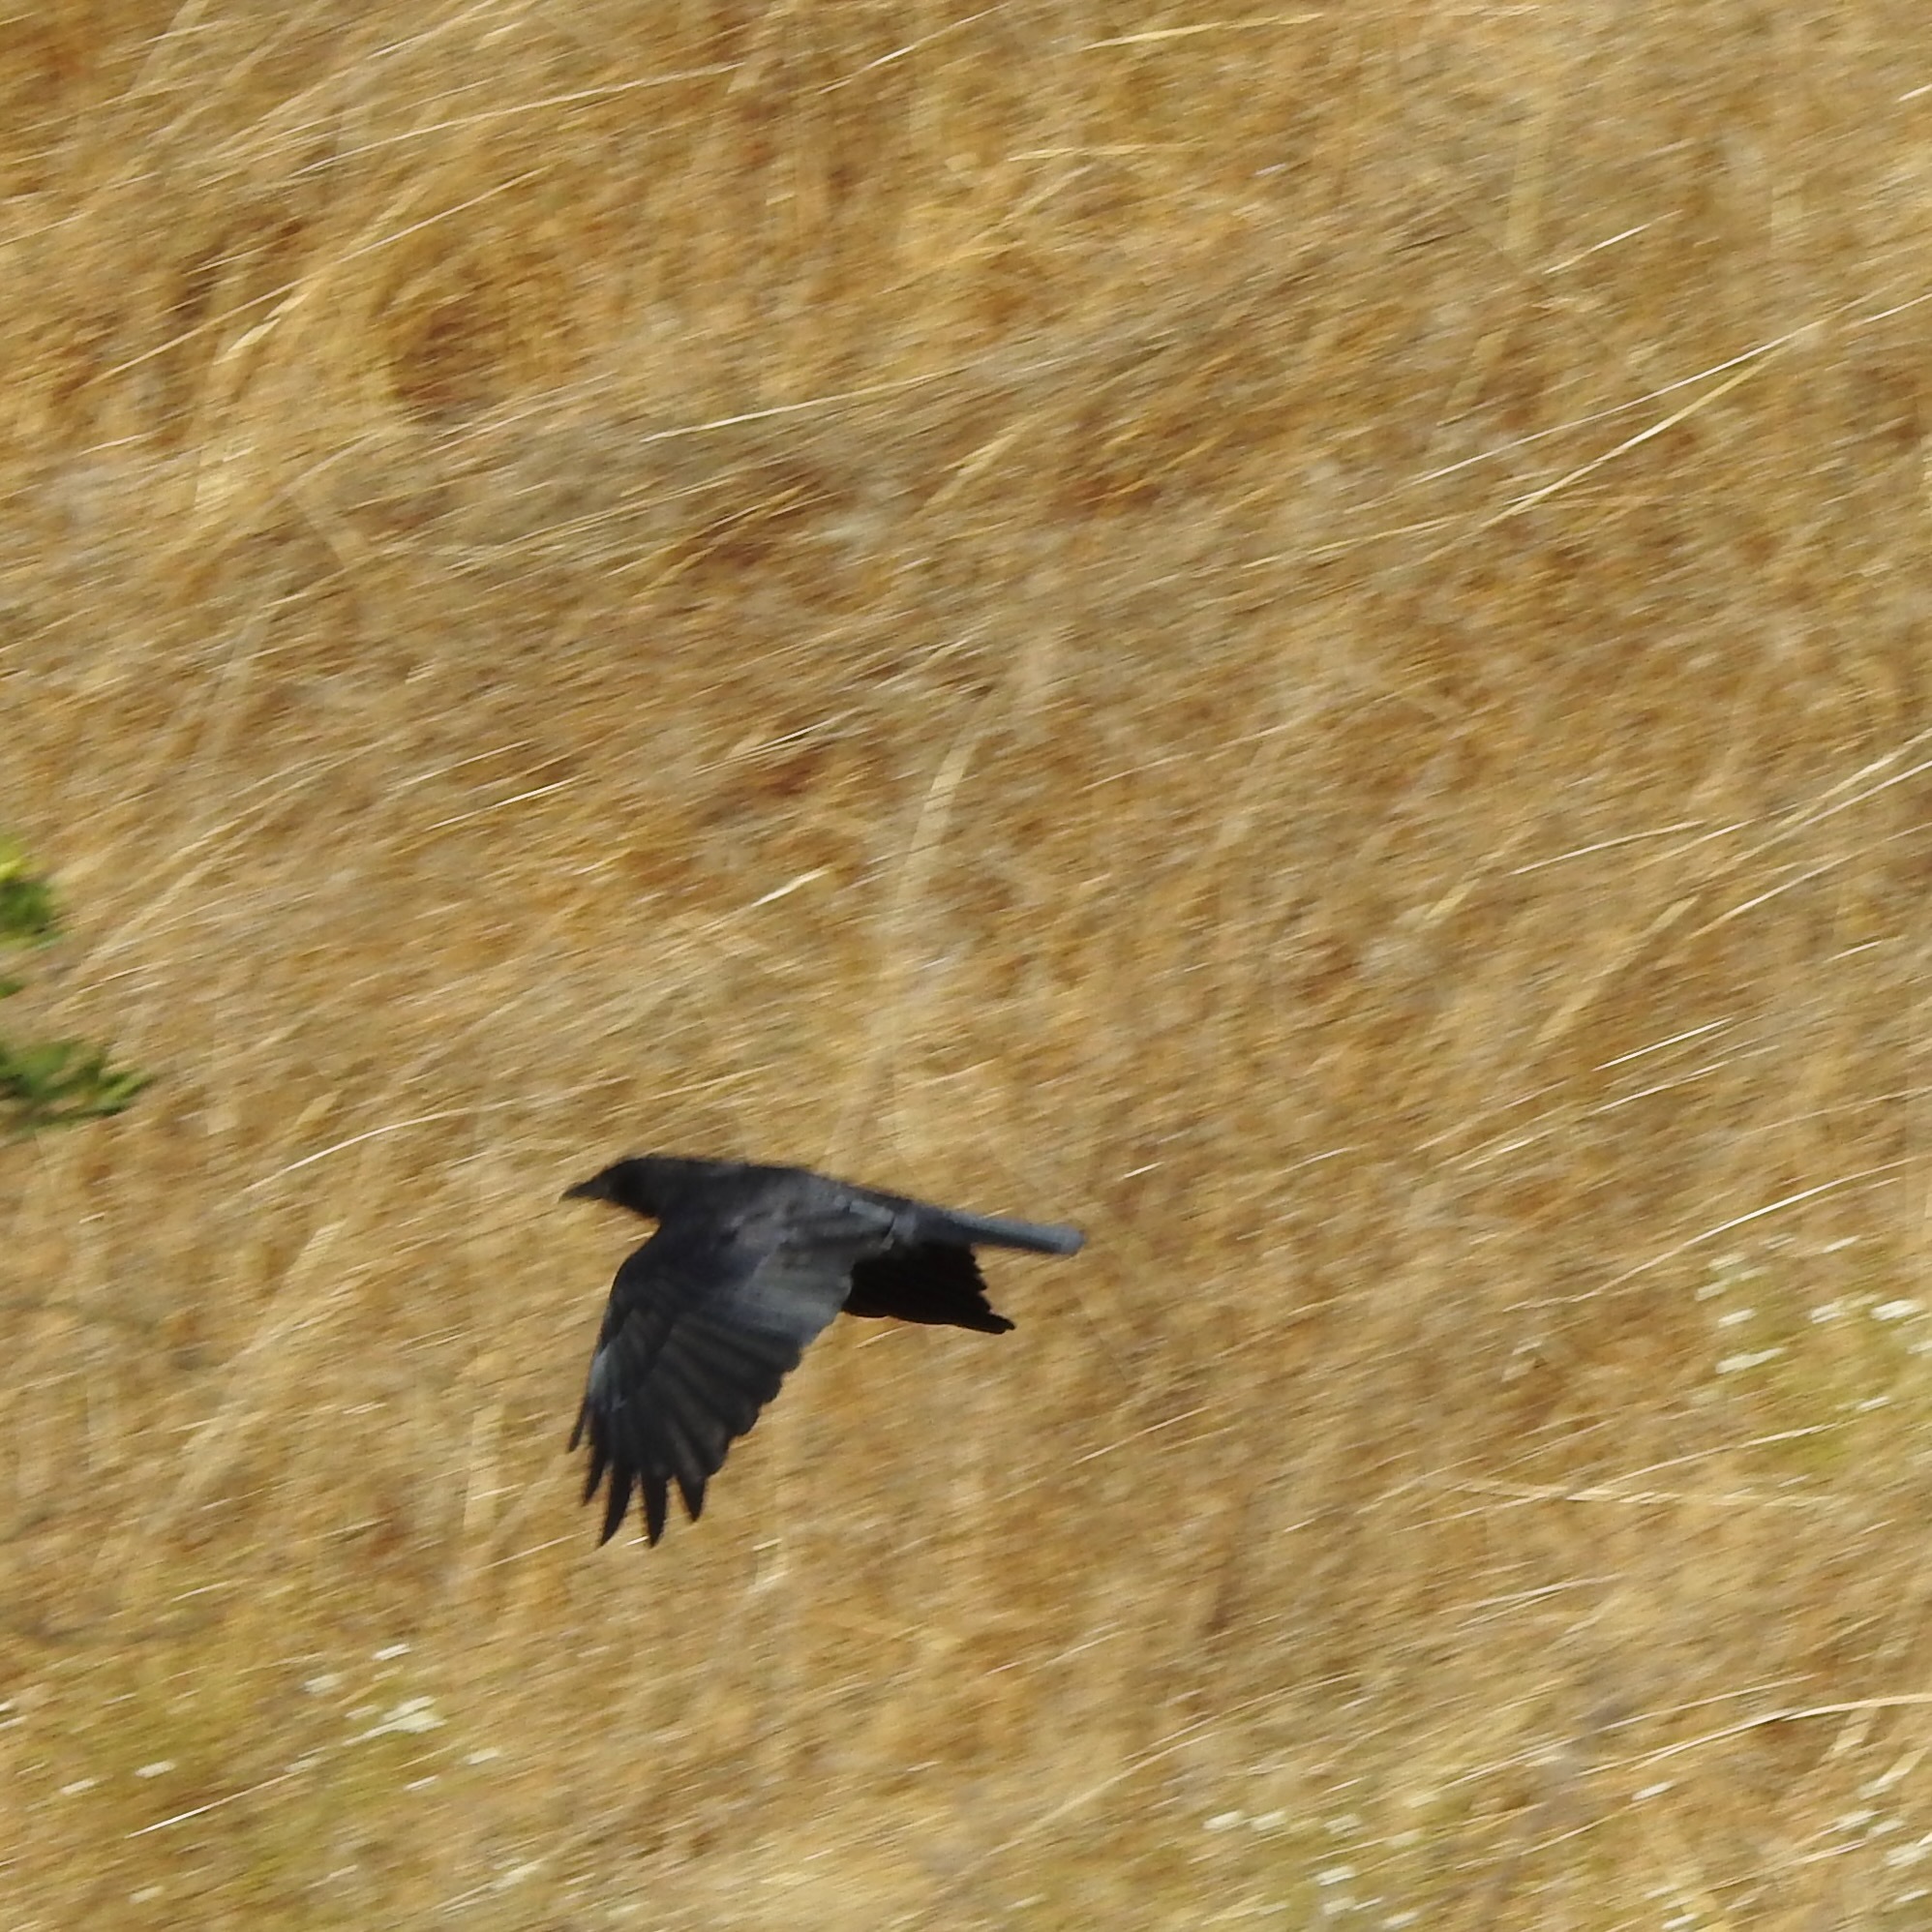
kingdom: Animalia
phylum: Chordata
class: Aves
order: Passeriformes
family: Corvidae
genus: Corvus
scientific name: Corvus brachyrhynchos
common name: American crow
